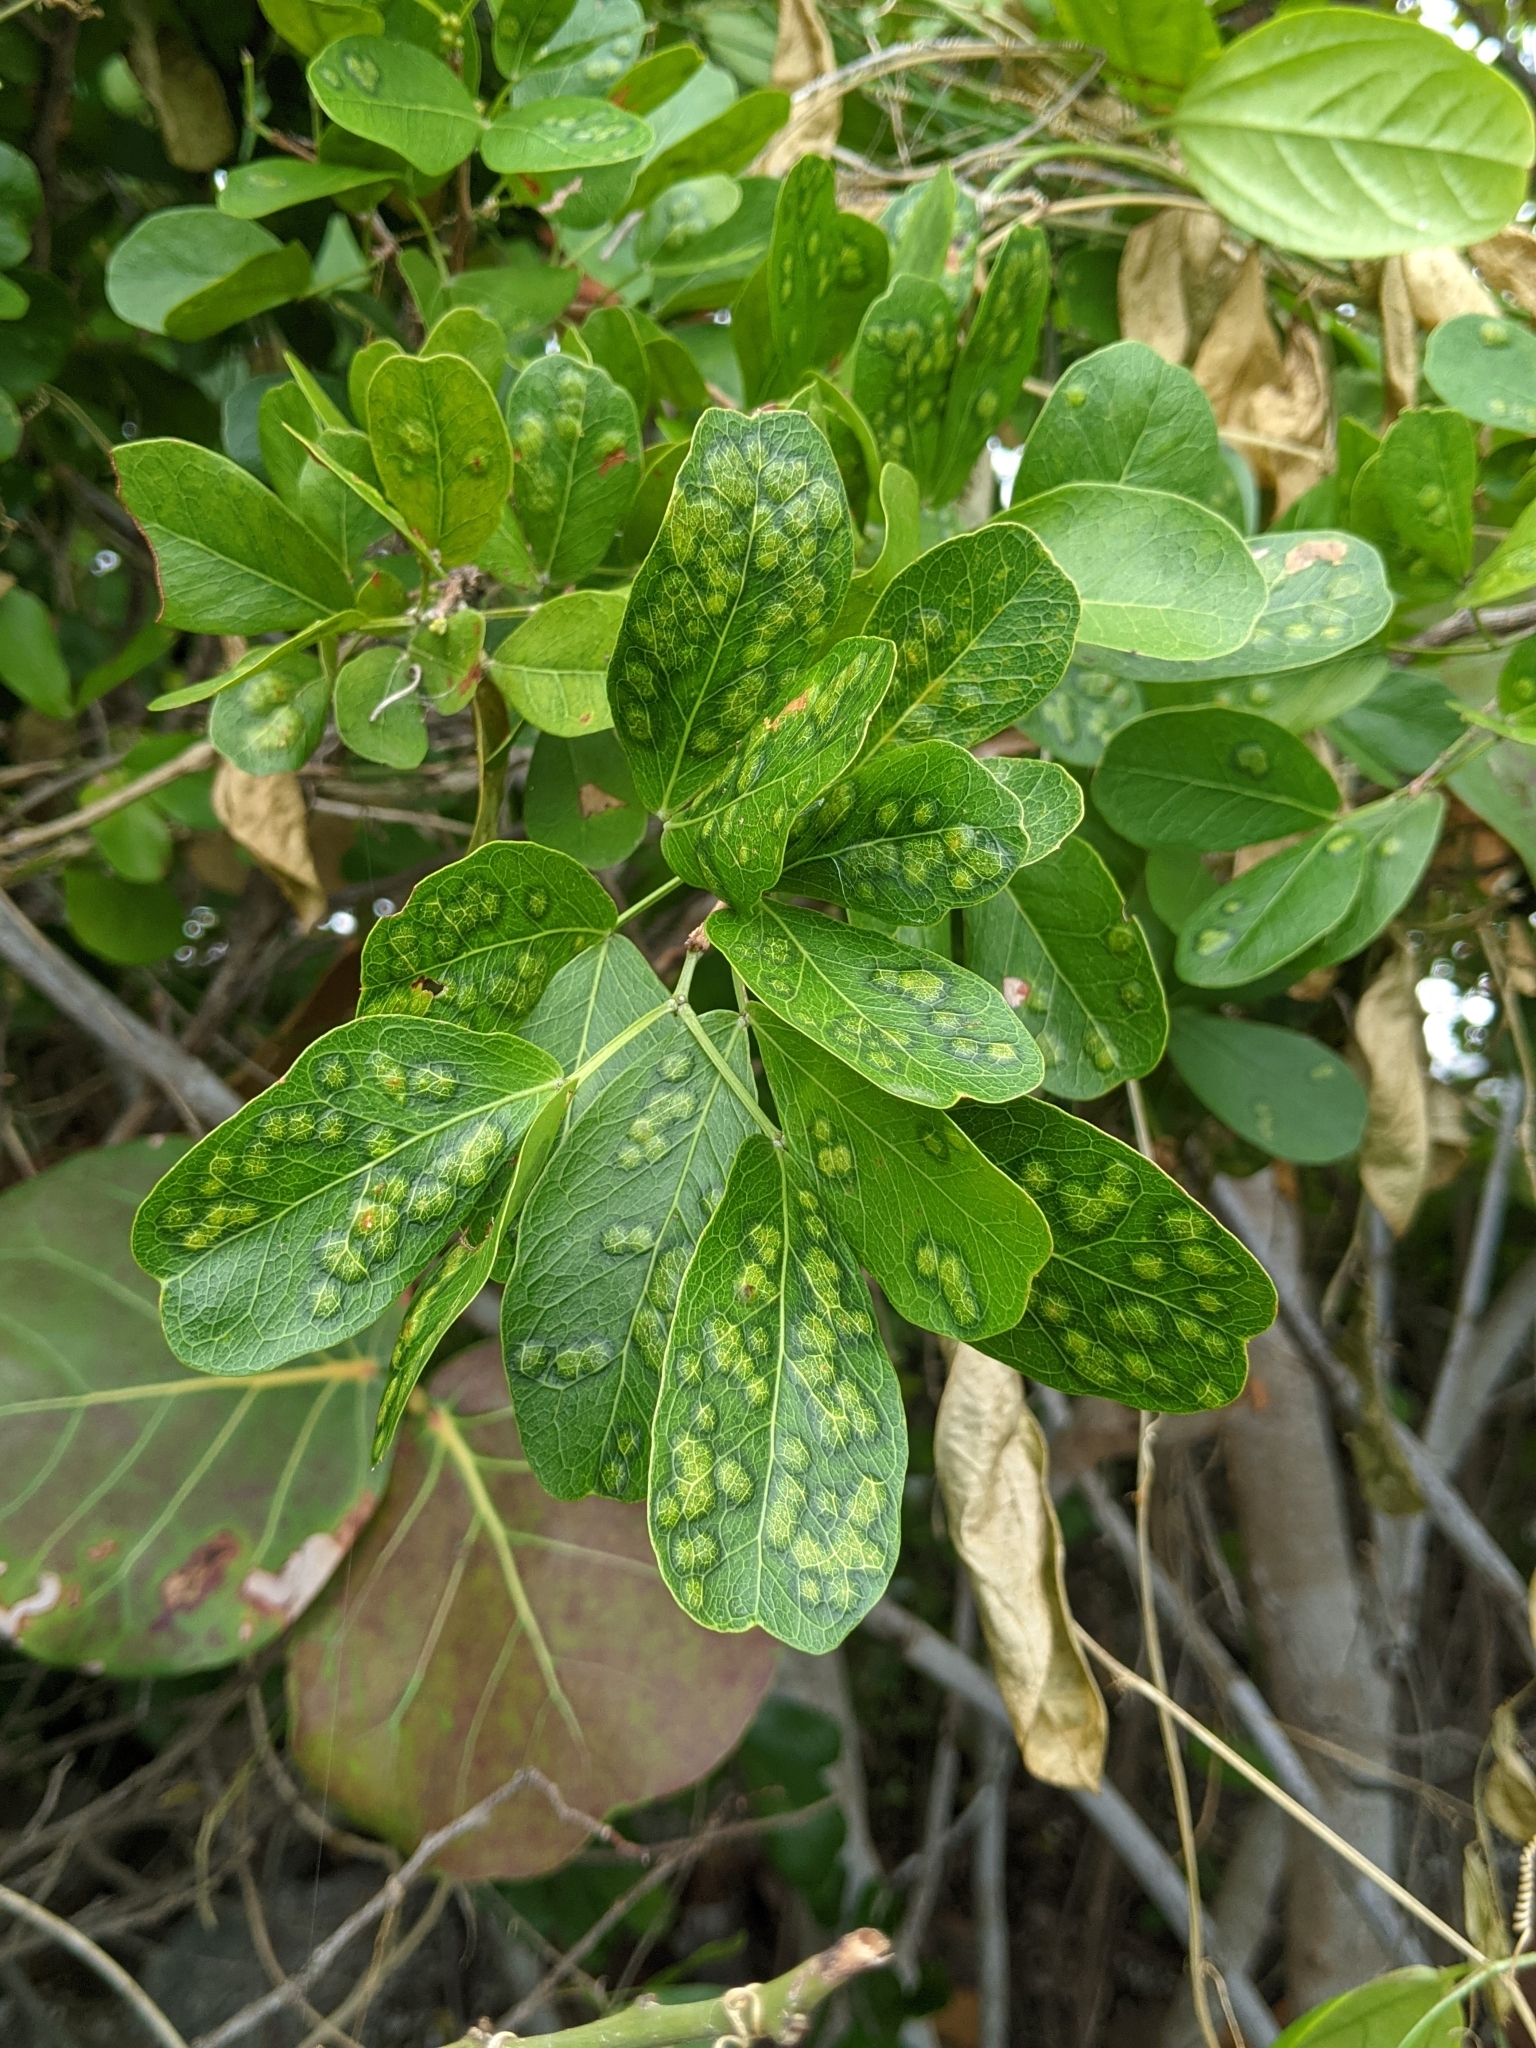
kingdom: Animalia
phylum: Arthropoda
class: Insecta
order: Hymenoptera
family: Tanaostigmatidae
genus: Tanaostigmodes
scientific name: Tanaostigmodes pithecellobiae
